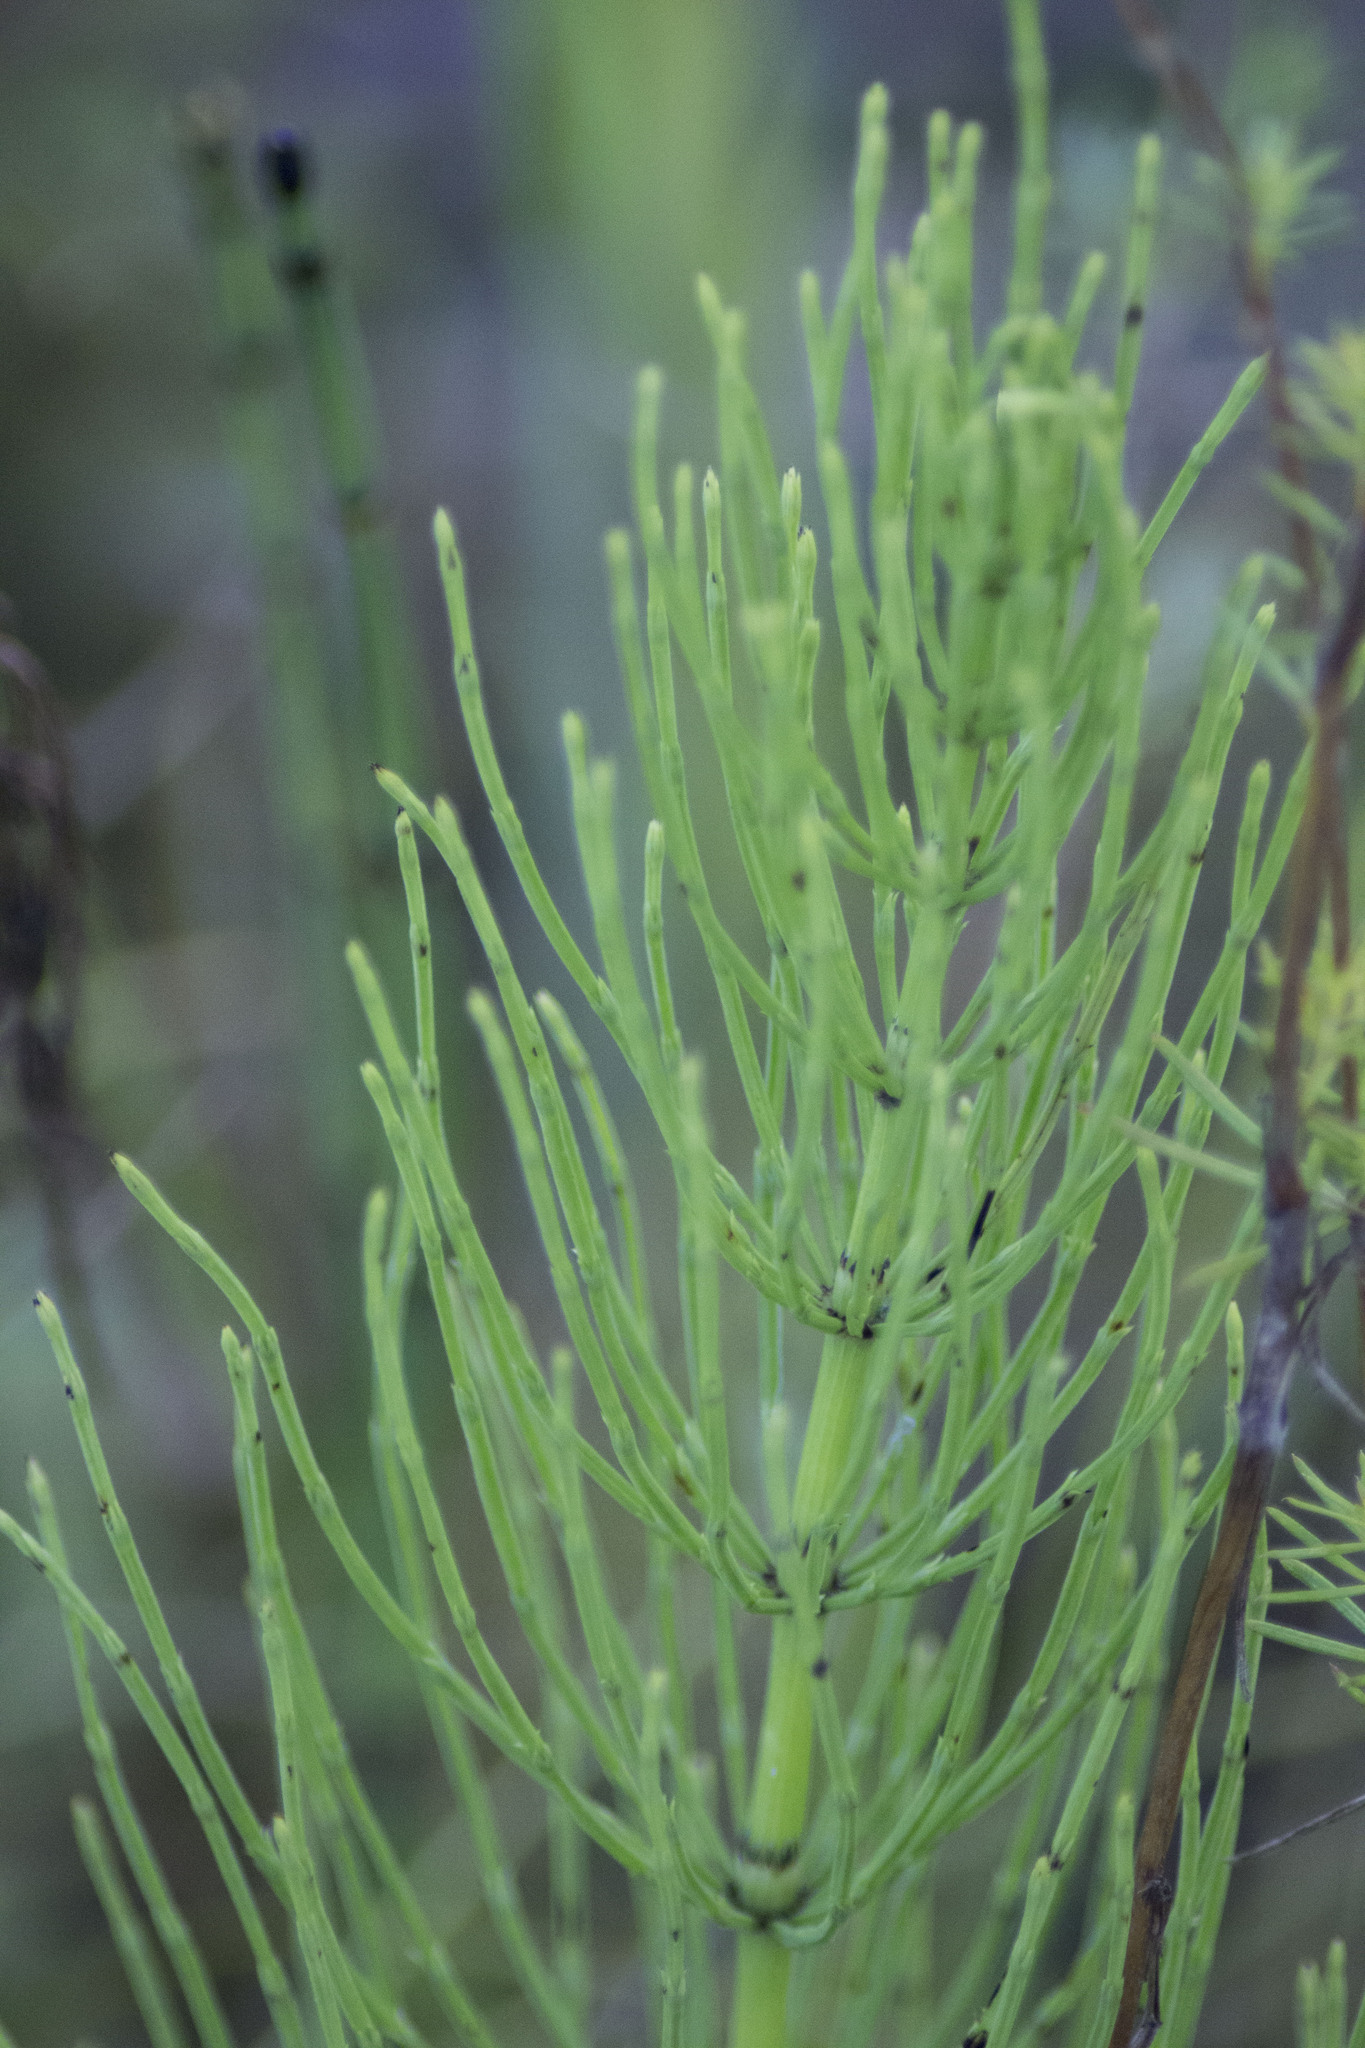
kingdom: Plantae
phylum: Tracheophyta
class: Polypodiopsida
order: Equisetales
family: Equisetaceae
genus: Equisetum
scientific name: Equisetum arvense
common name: Field horsetail
